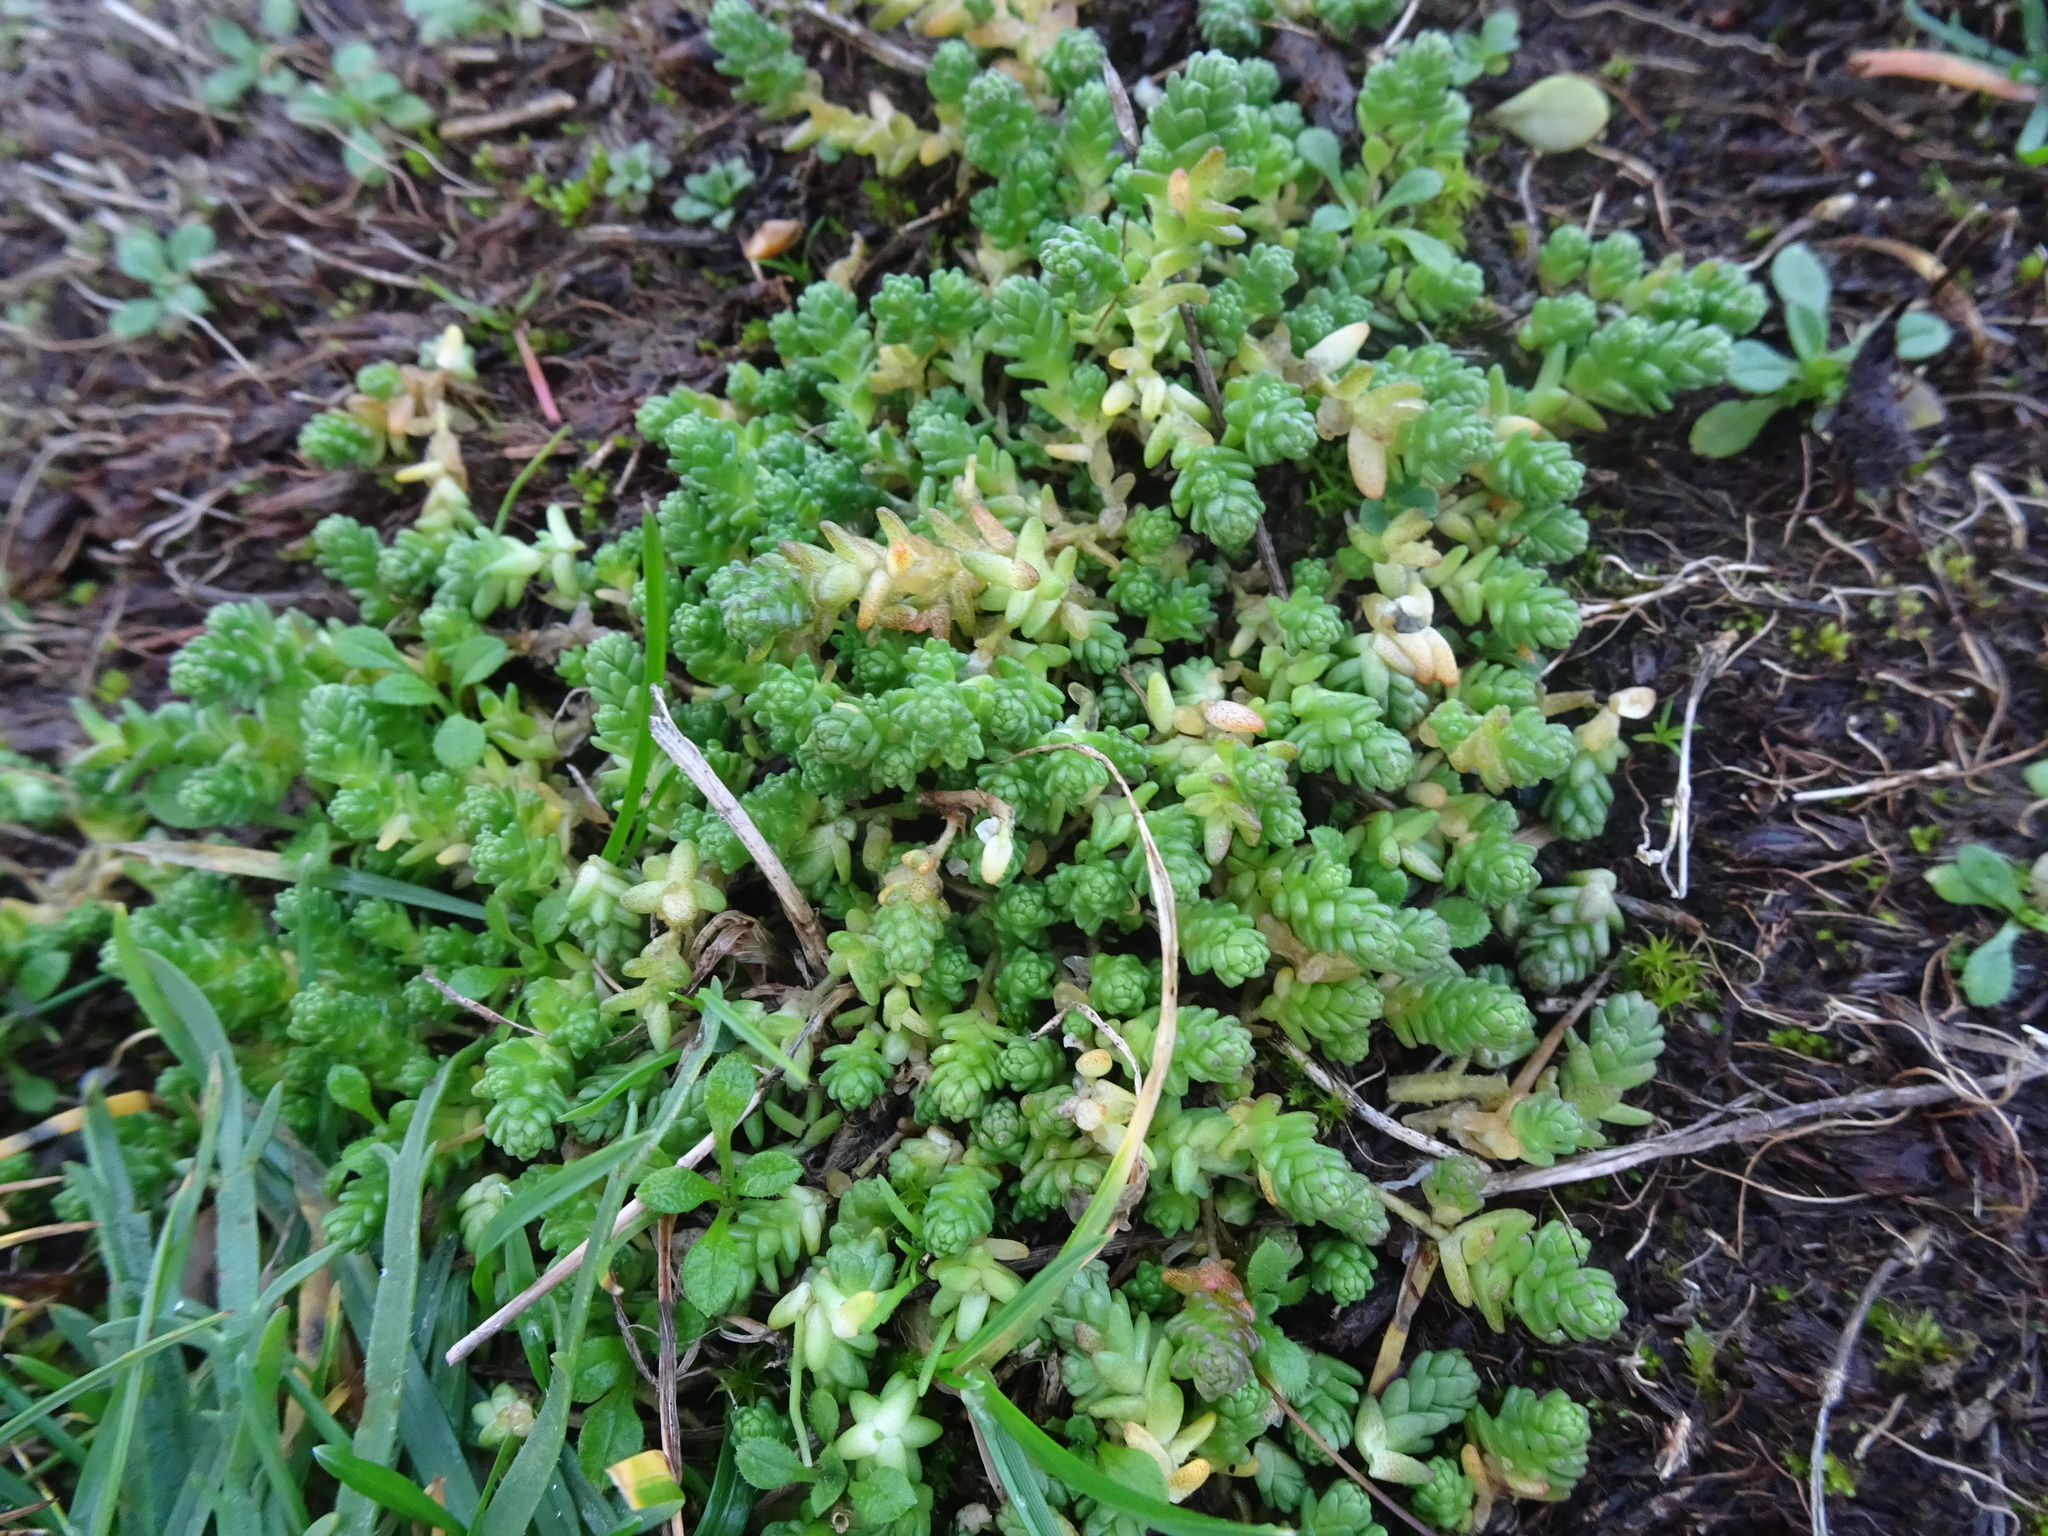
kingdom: Plantae
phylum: Tracheophyta
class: Magnoliopsida
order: Saxifragales
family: Crassulaceae
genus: Sedum
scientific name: Sedum acre
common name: Biting stonecrop
